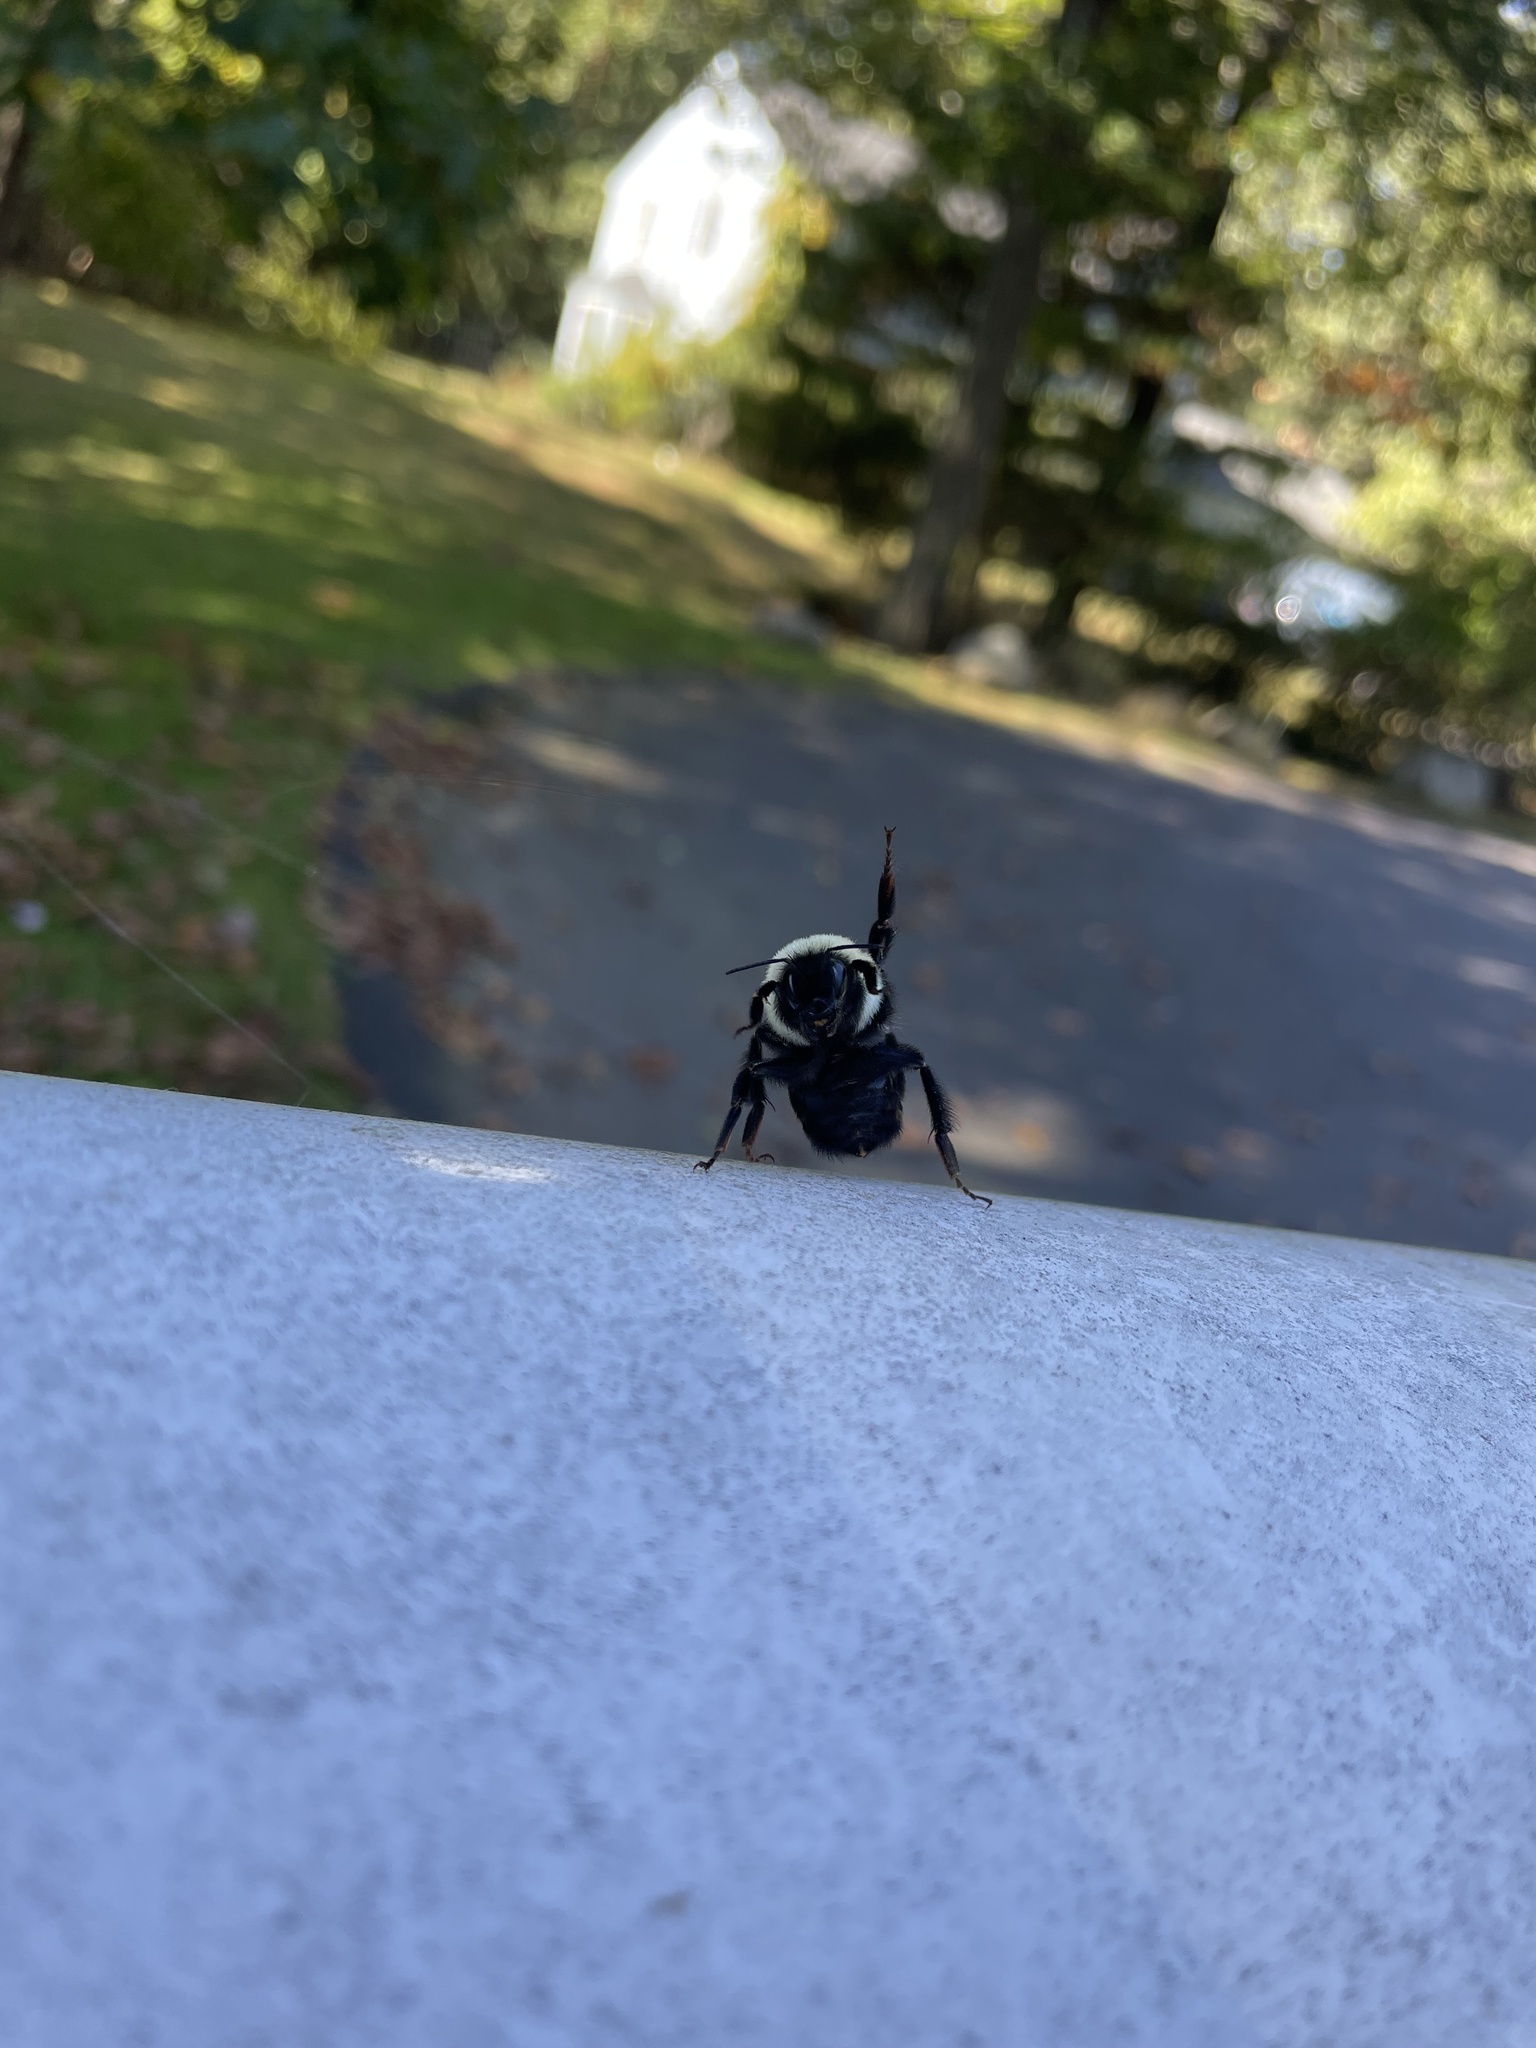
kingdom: Animalia
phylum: Arthropoda
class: Insecta
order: Hymenoptera
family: Apidae
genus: Bombus
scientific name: Bombus impatiens
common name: Common eastern bumble bee
